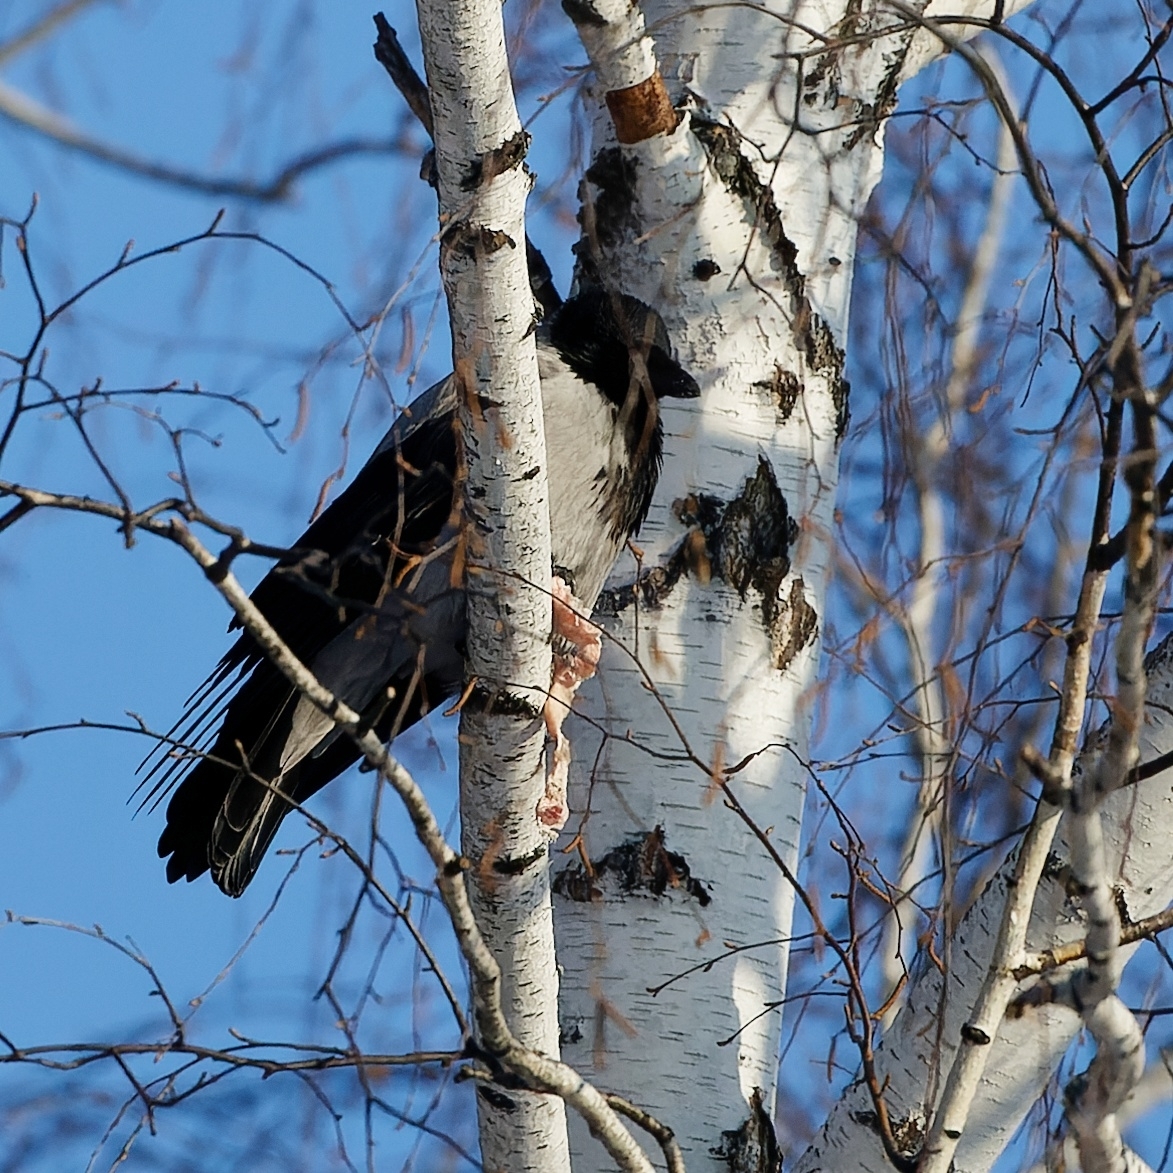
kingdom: Animalia
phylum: Chordata
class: Aves
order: Passeriformes
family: Corvidae
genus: Corvus
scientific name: Corvus cornix
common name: Hooded crow
